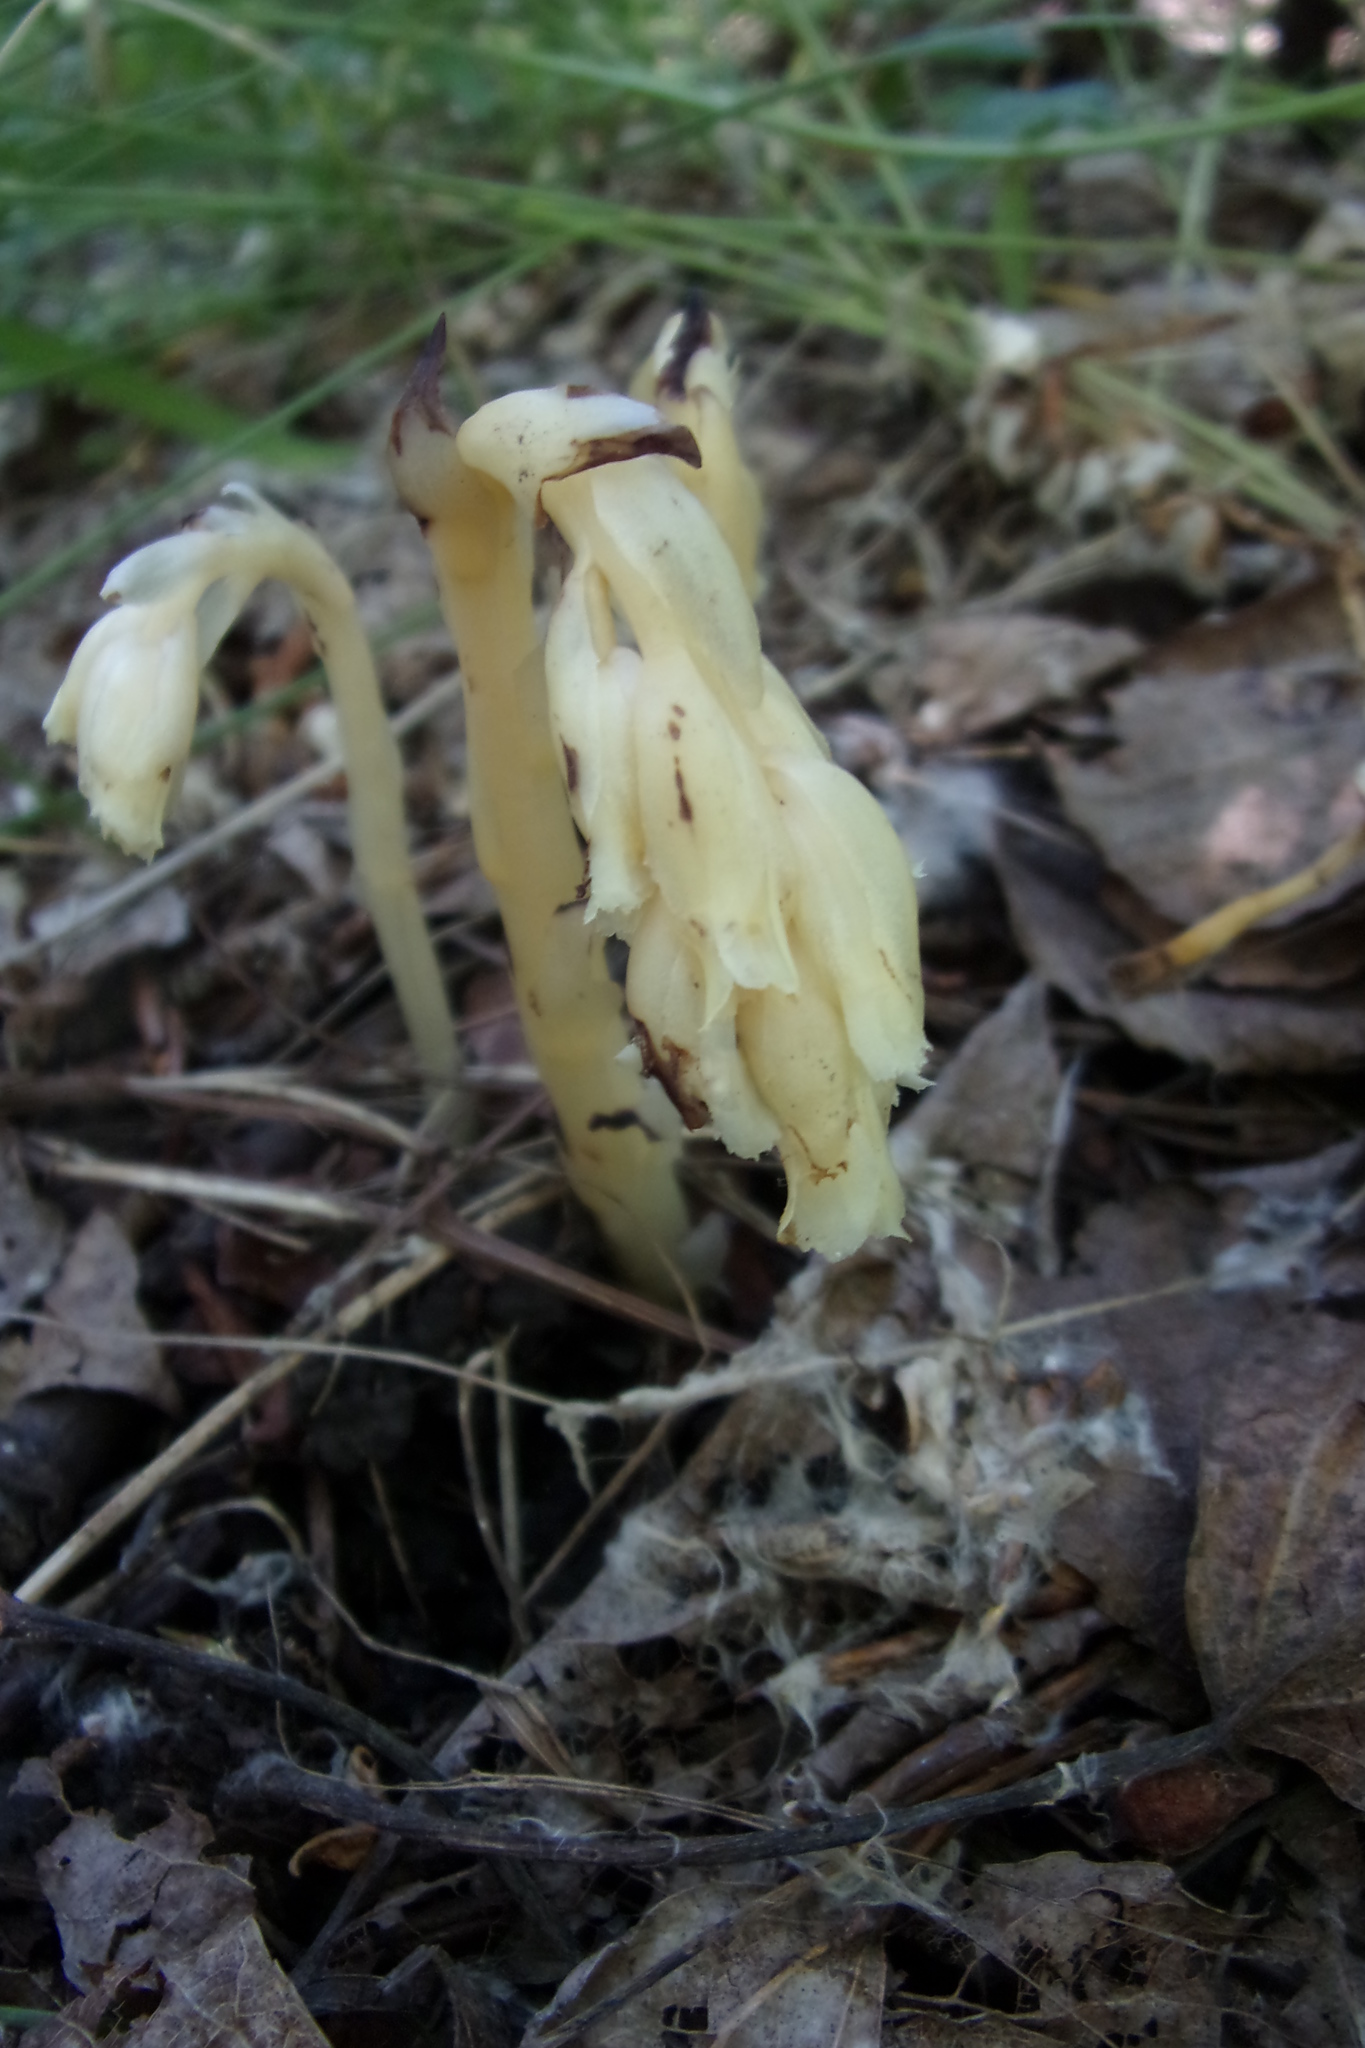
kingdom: Plantae
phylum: Tracheophyta
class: Magnoliopsida
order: Ericales
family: Ericaceae
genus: Hypopitys
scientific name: Hypopitys monotropa
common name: Yellow bird's-nest
